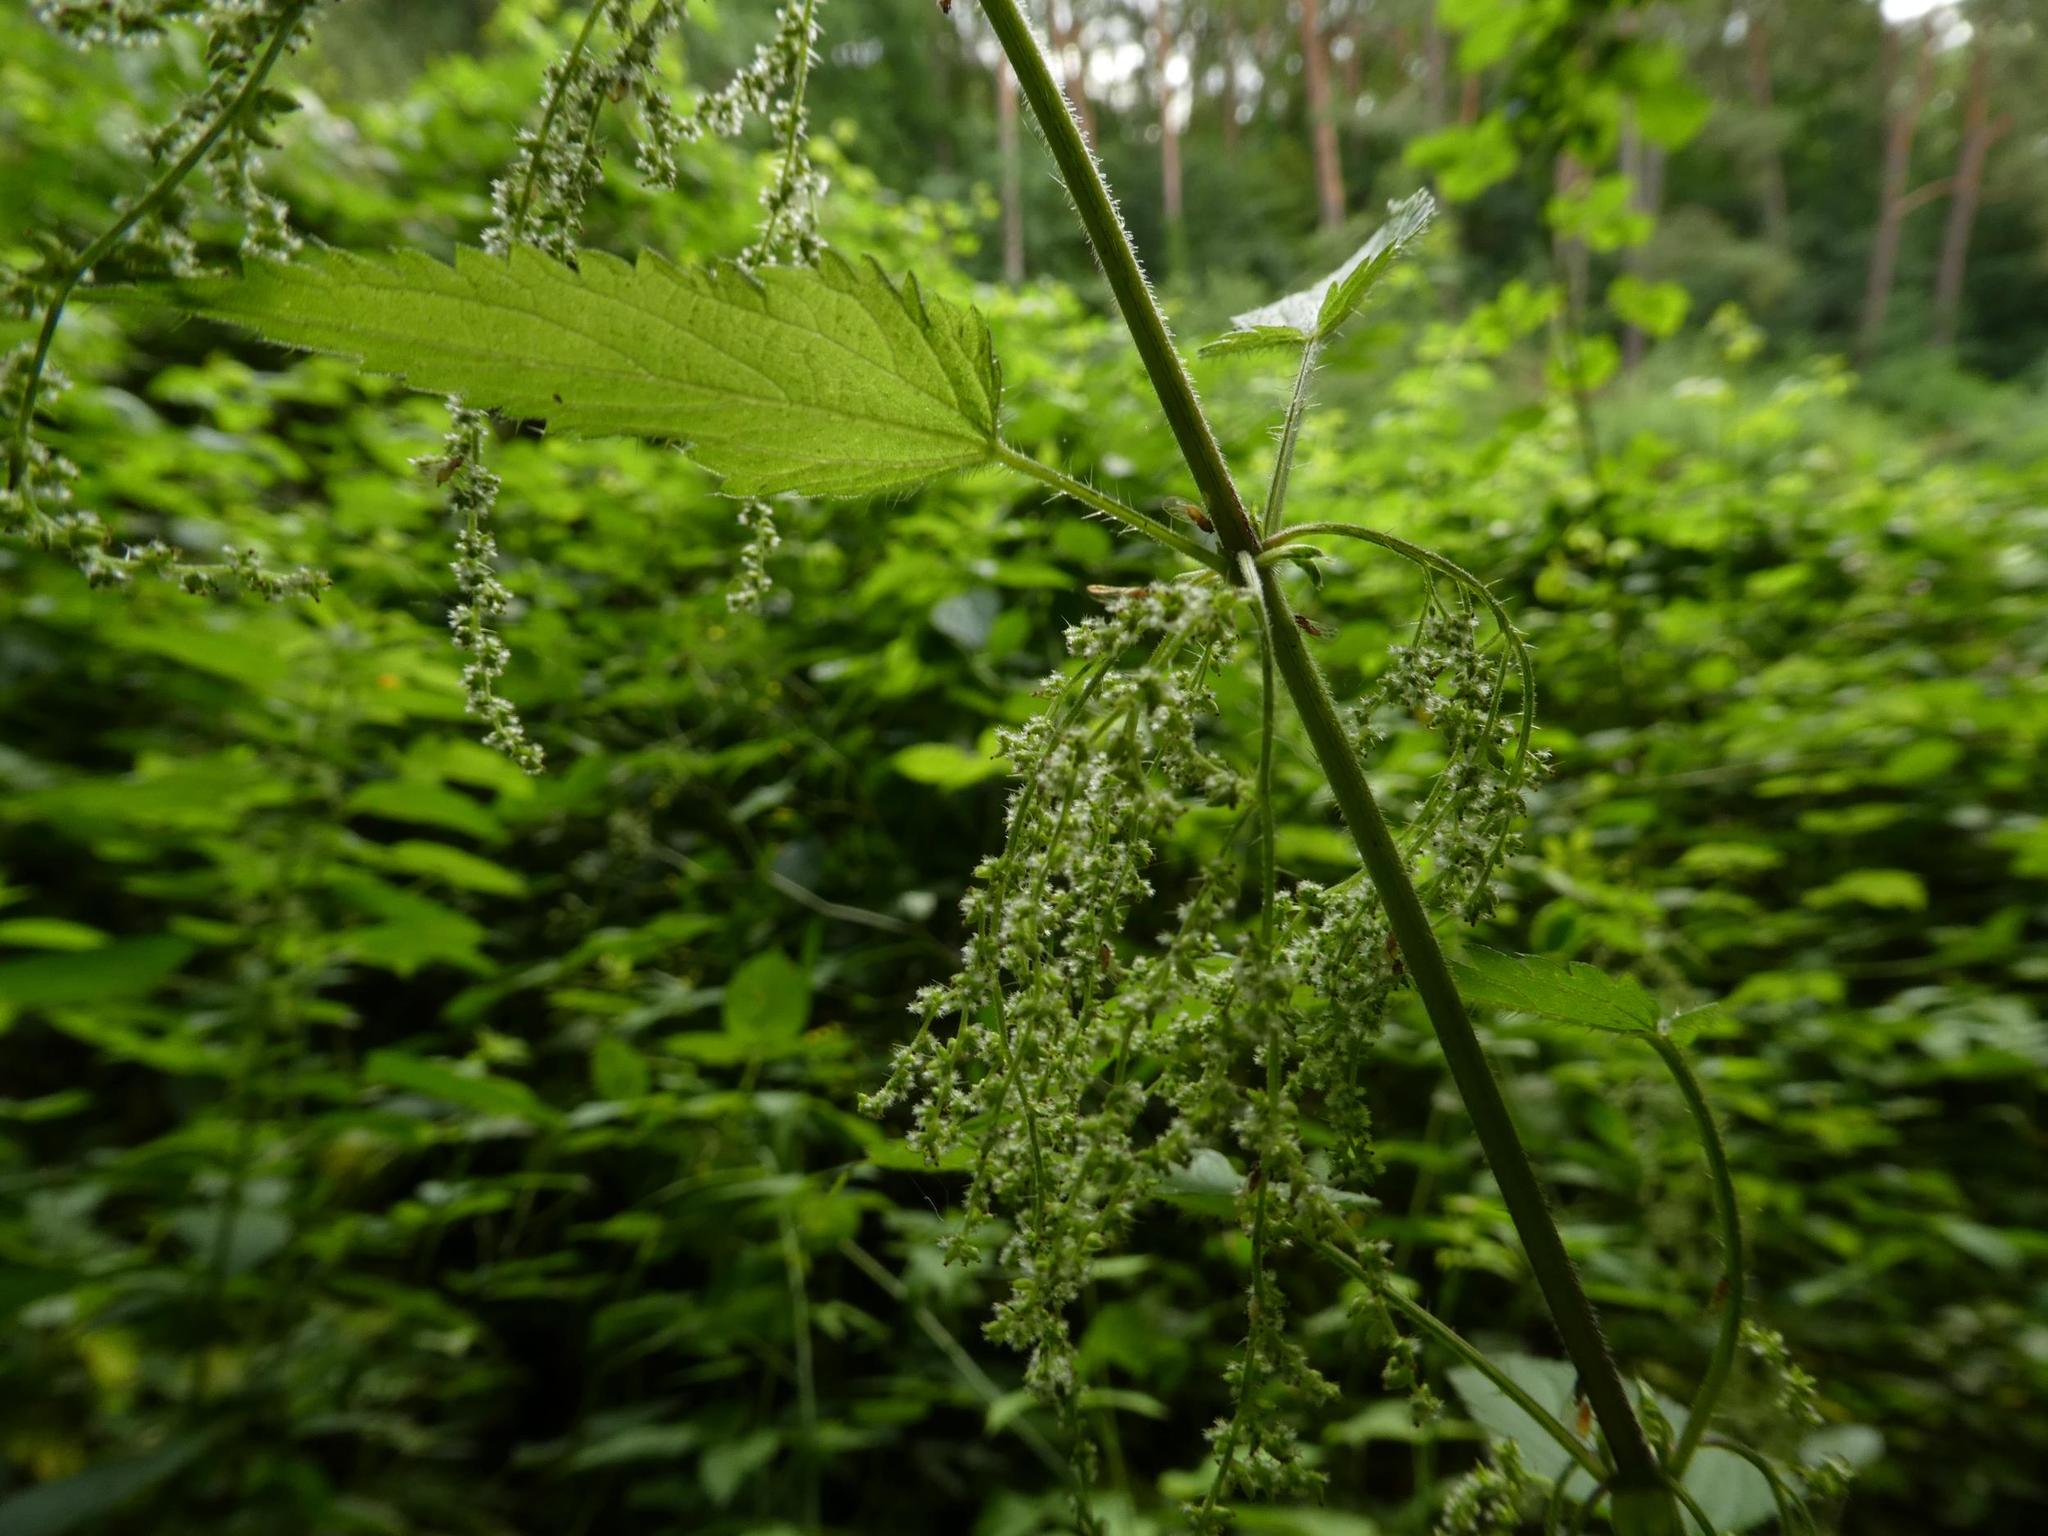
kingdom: Plantae
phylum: Tracheophyta
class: Magnoliopsida
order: Rosales
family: Urticaceae
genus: Urtica
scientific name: Urtica dioica
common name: Common nettle
